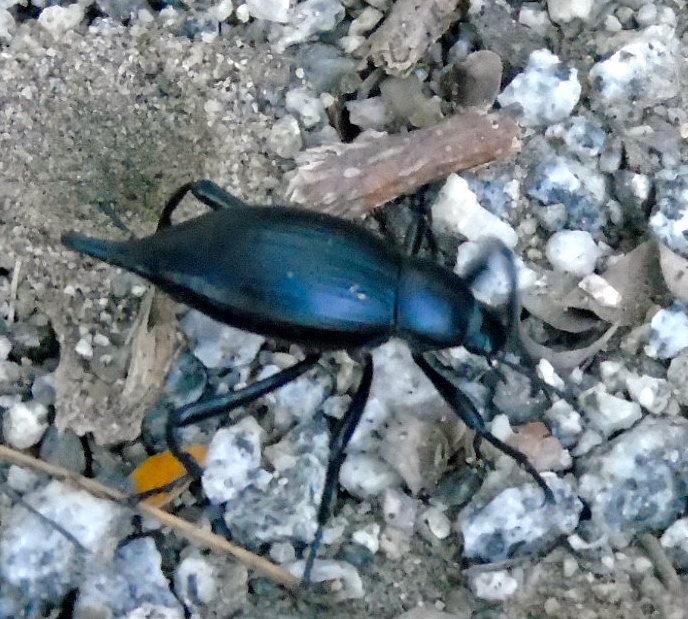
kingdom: Animalia
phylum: Arthropoda
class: Insecta
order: Coleoptera
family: Tenebrionidae
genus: Eleodes
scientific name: Eleodes eschscholtzii
